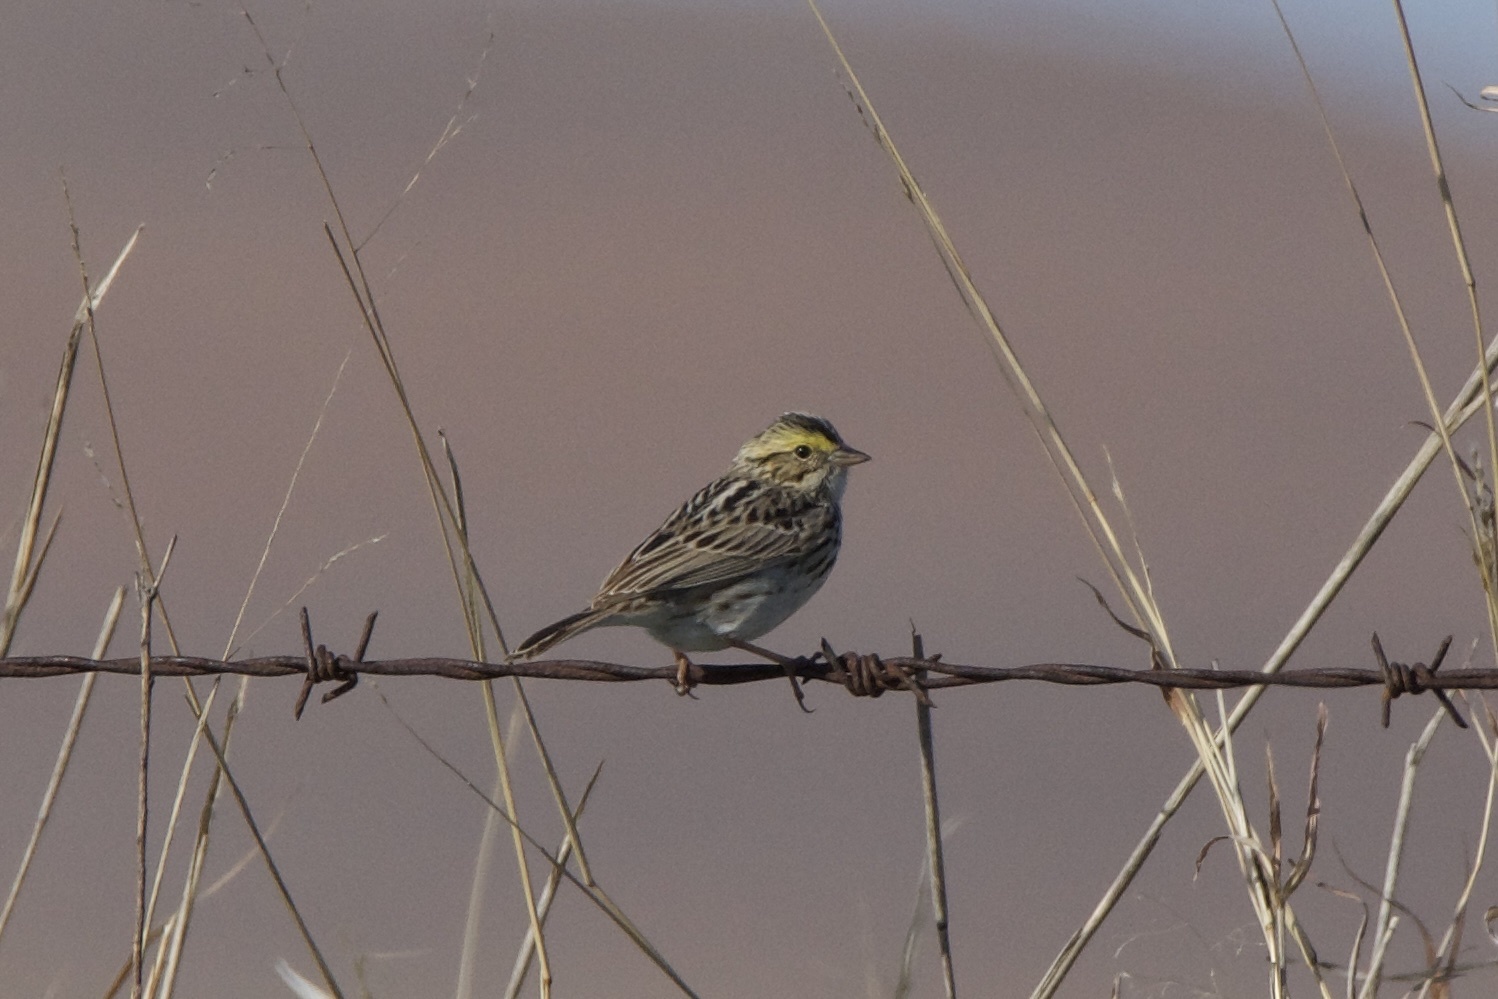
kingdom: Animalia
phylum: Chordata
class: Aves
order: Passeriformes
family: Passerellidae
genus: Passerculus
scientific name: Passerculus sandwichensis
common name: Savannah sparrow
